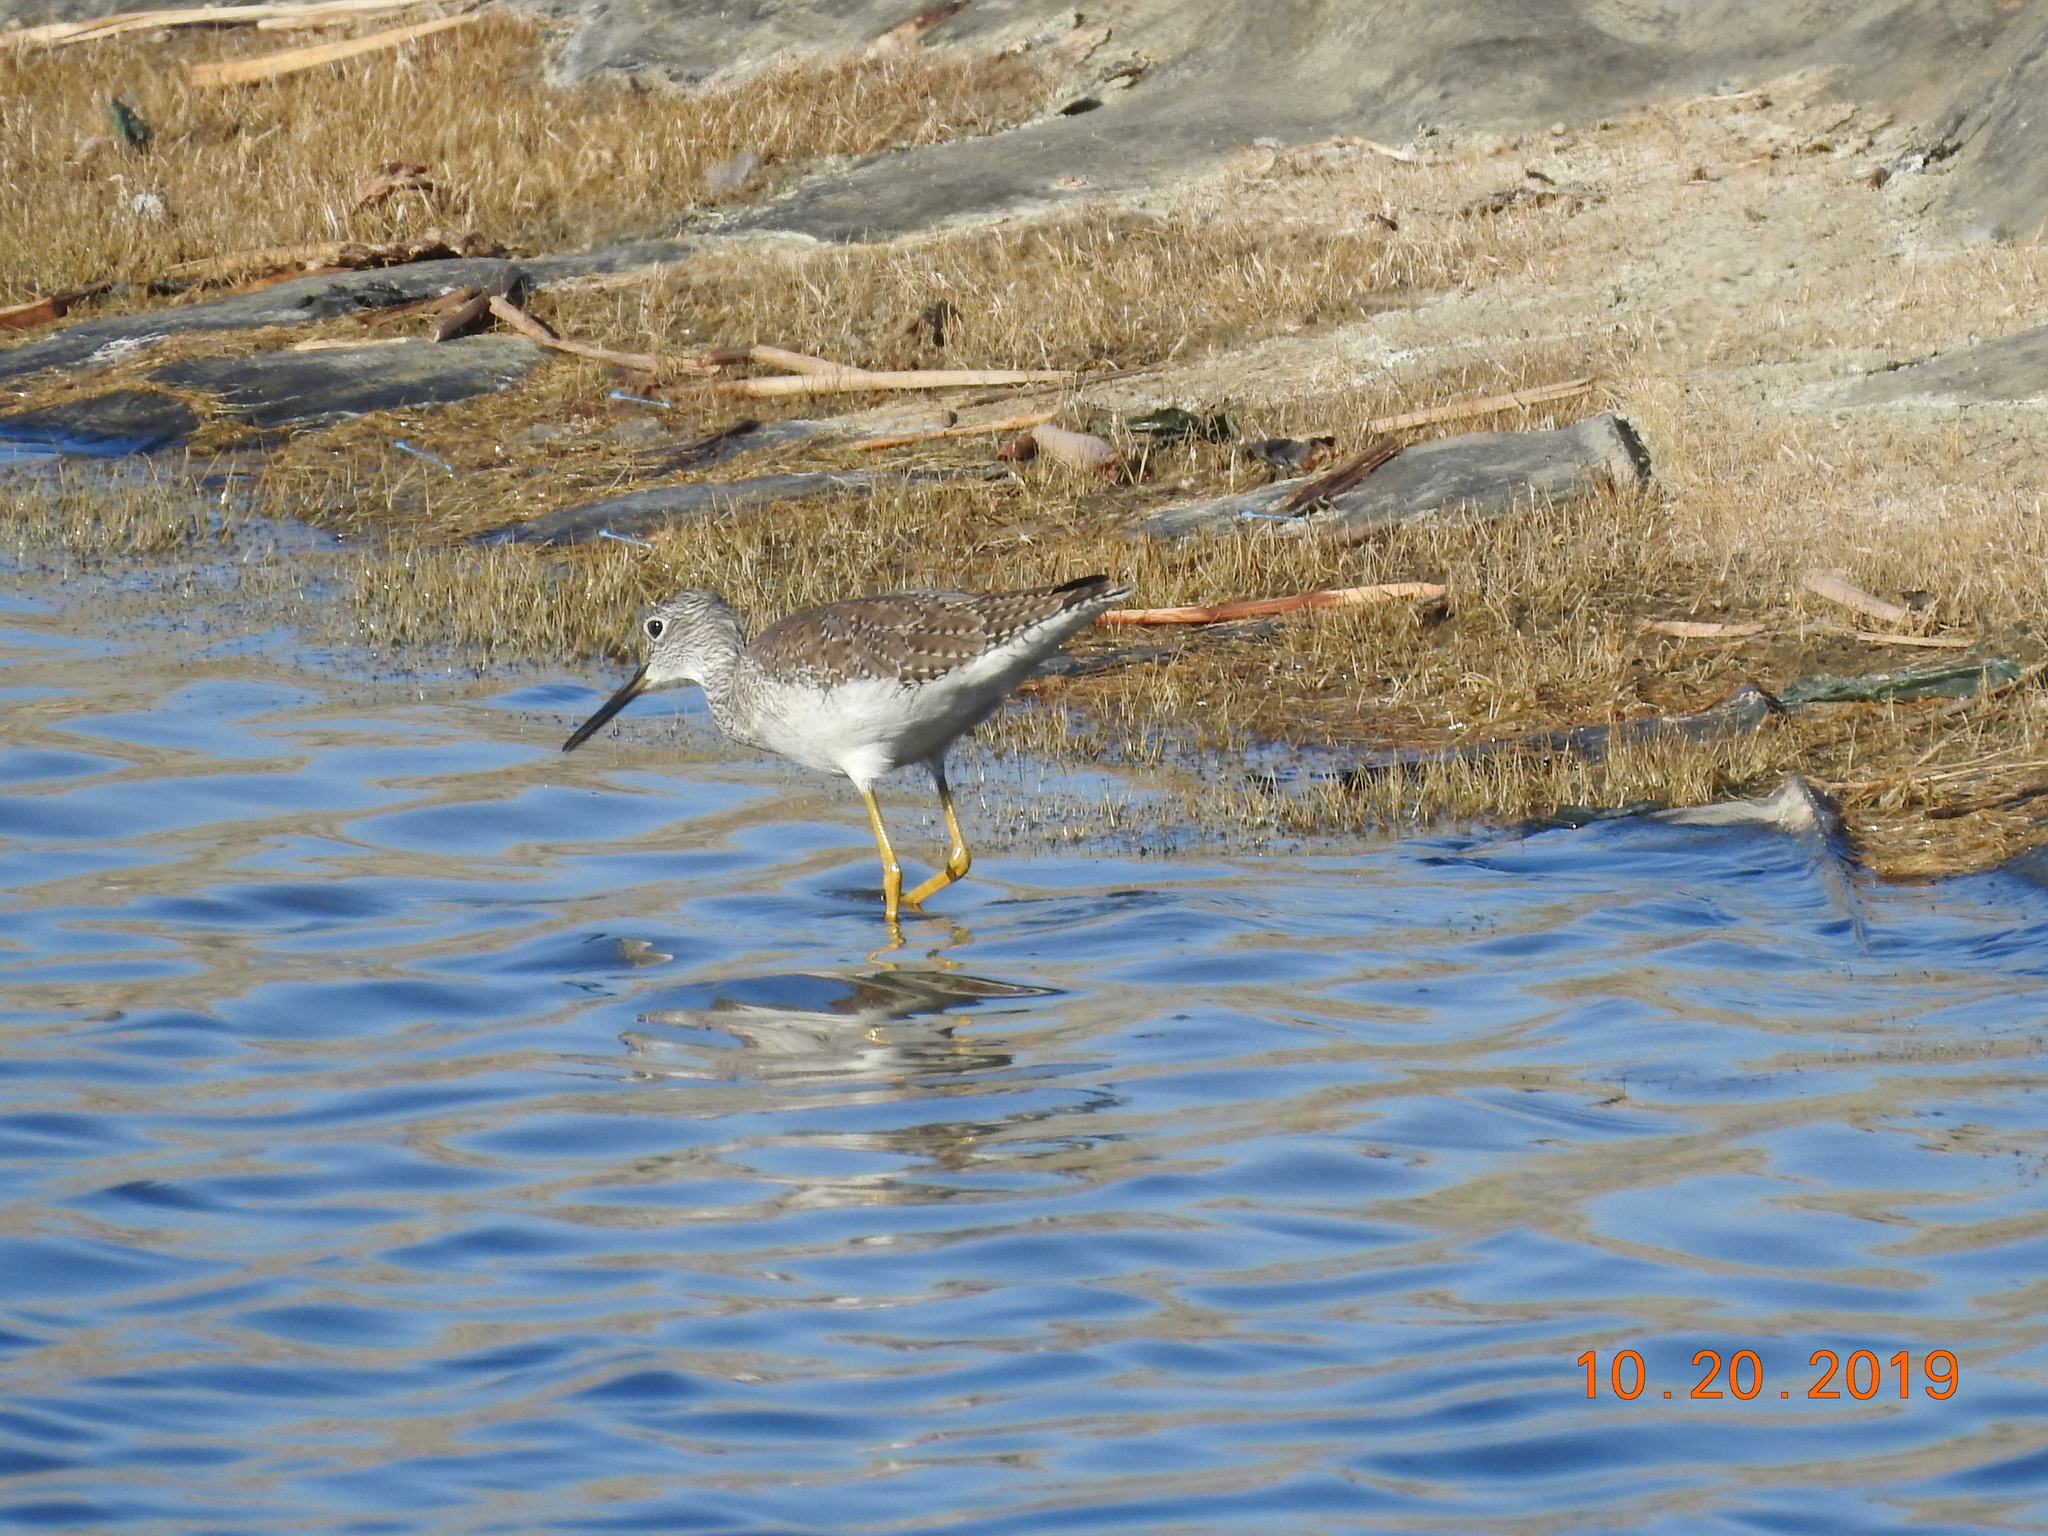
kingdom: Animalia
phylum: Chordata
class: Aves
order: Charadriiformes
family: Scolopacidae
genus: Tringa
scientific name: Tringa melanoleuca
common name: Greater yellowlegs
